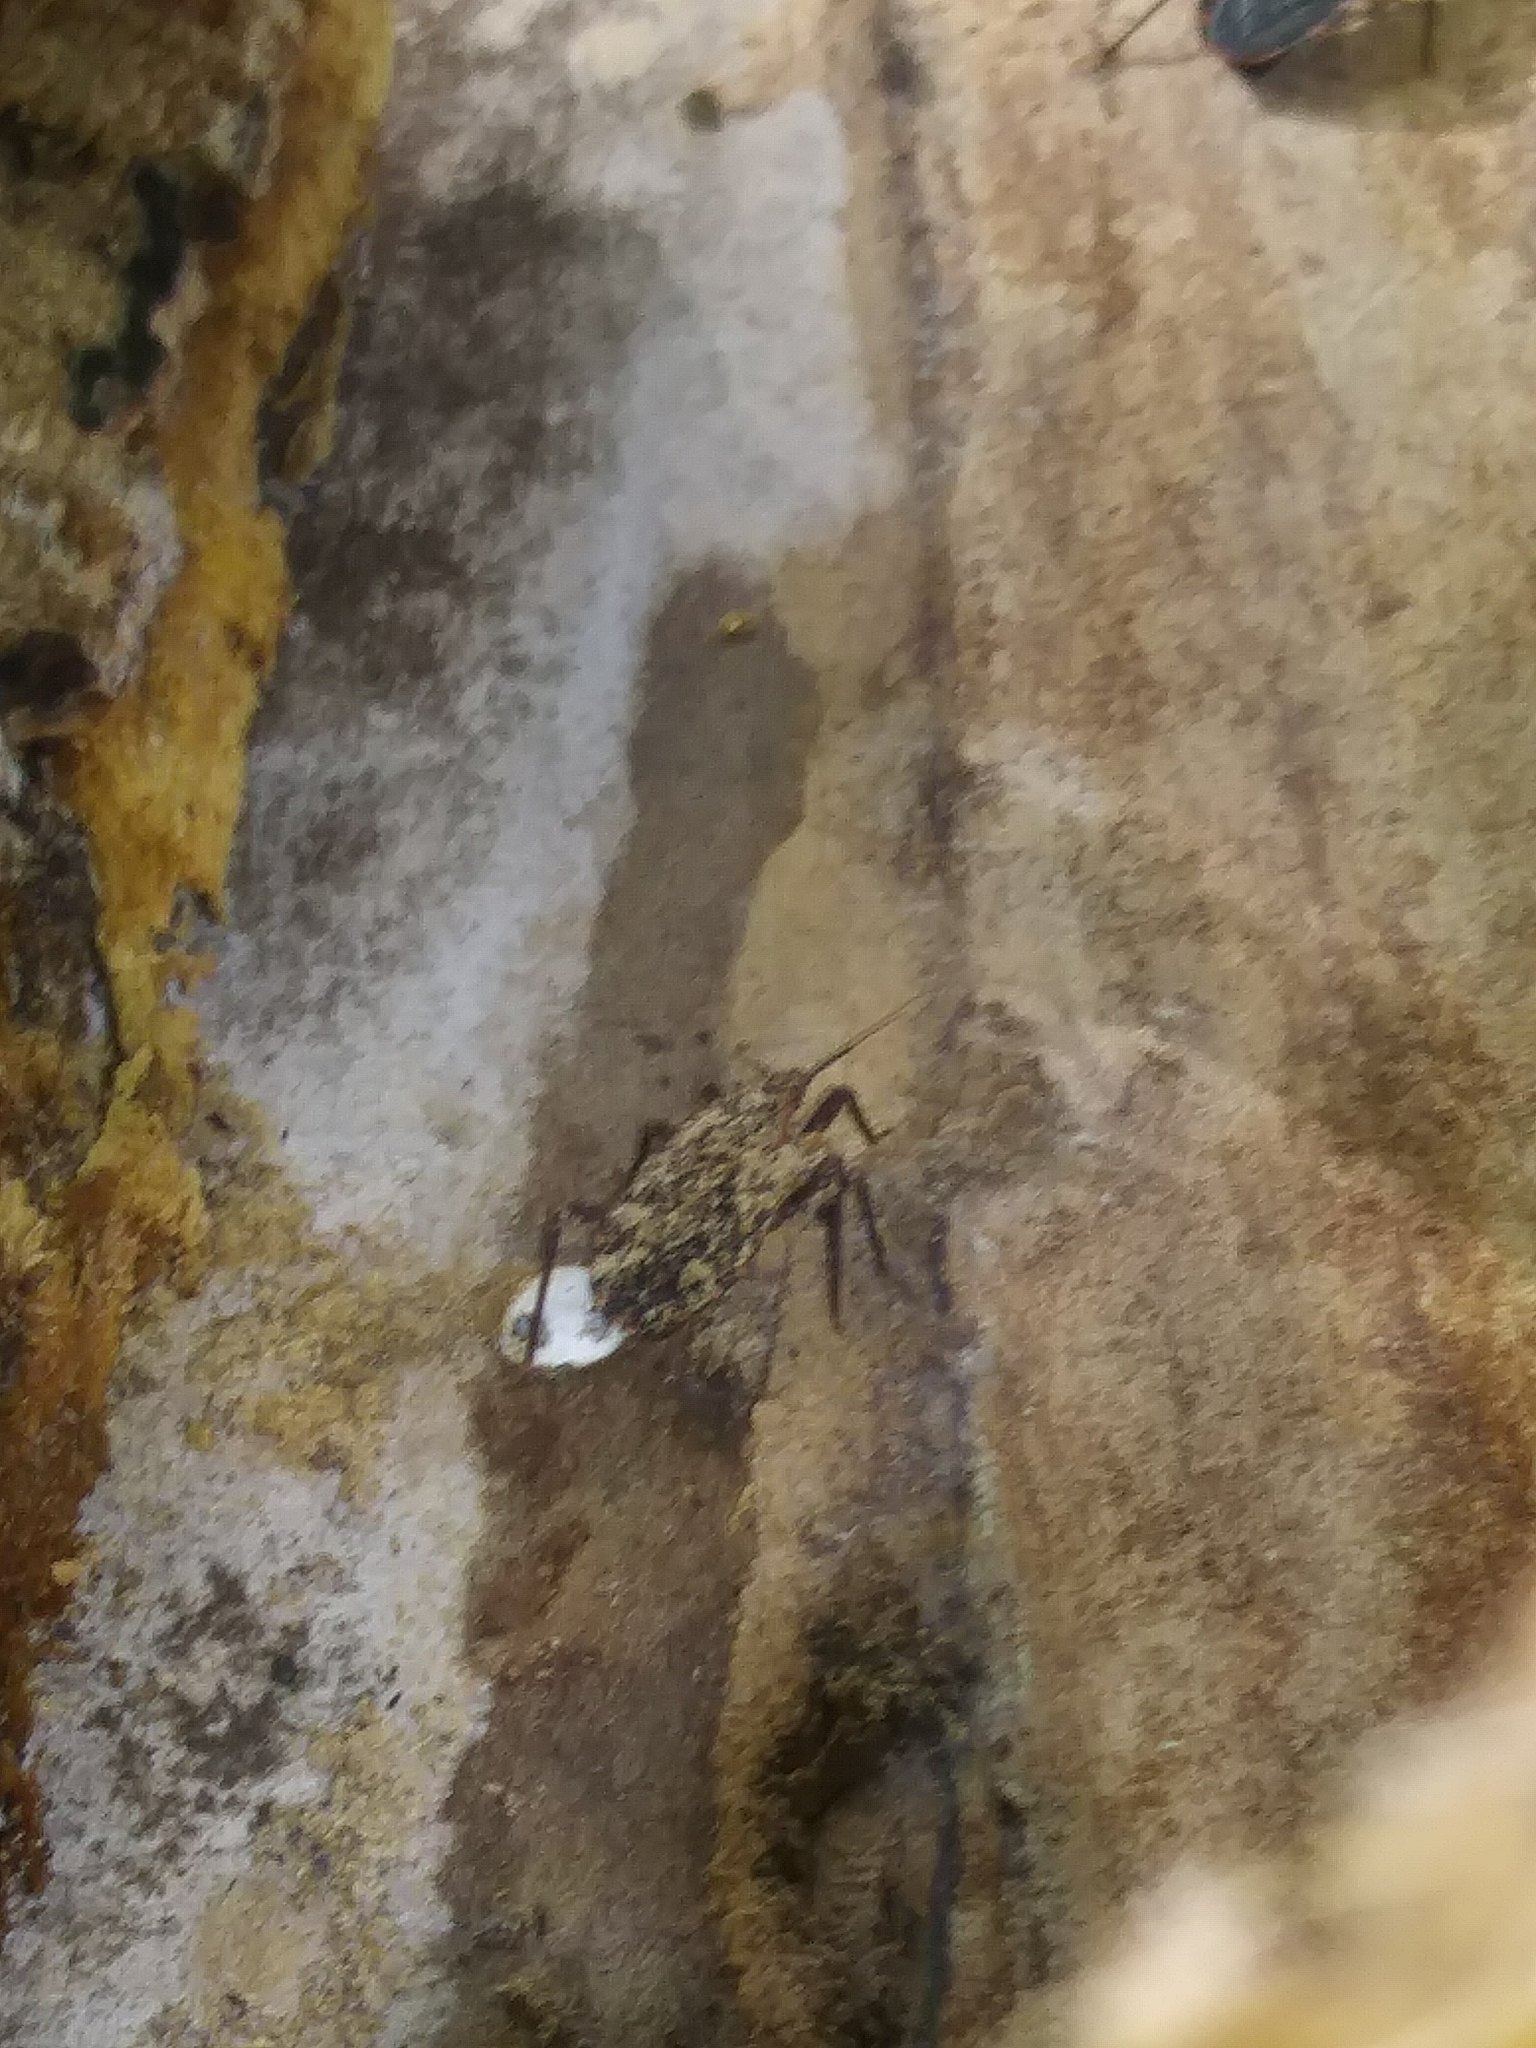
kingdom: Animalia
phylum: Arthropoda
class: Insecta
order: Hemiptera
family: Reduviidae
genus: Reduvius
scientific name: Reduvius personatus
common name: Masked hunter
